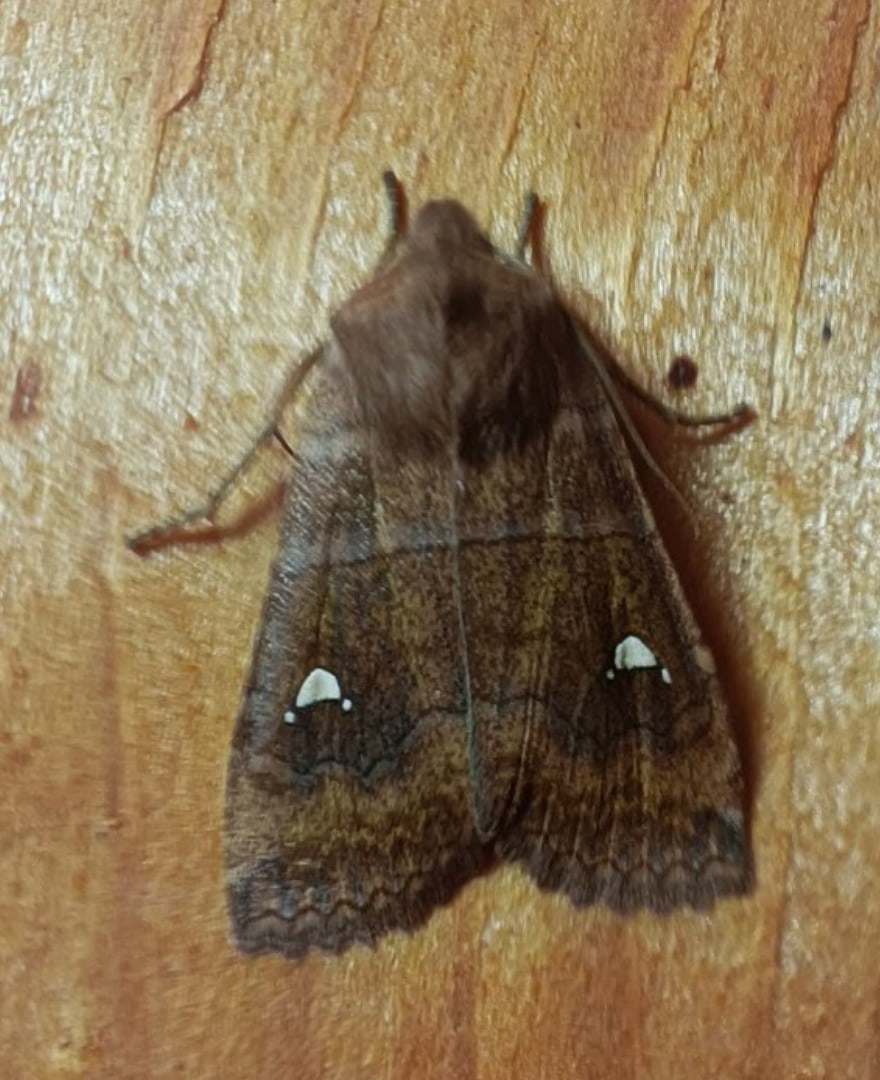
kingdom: Animalia
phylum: Arthropoda
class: Insecta
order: Lepidoptera
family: Noctuidae
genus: Eupsilia
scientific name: Eupsilia transversa
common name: Satellite
